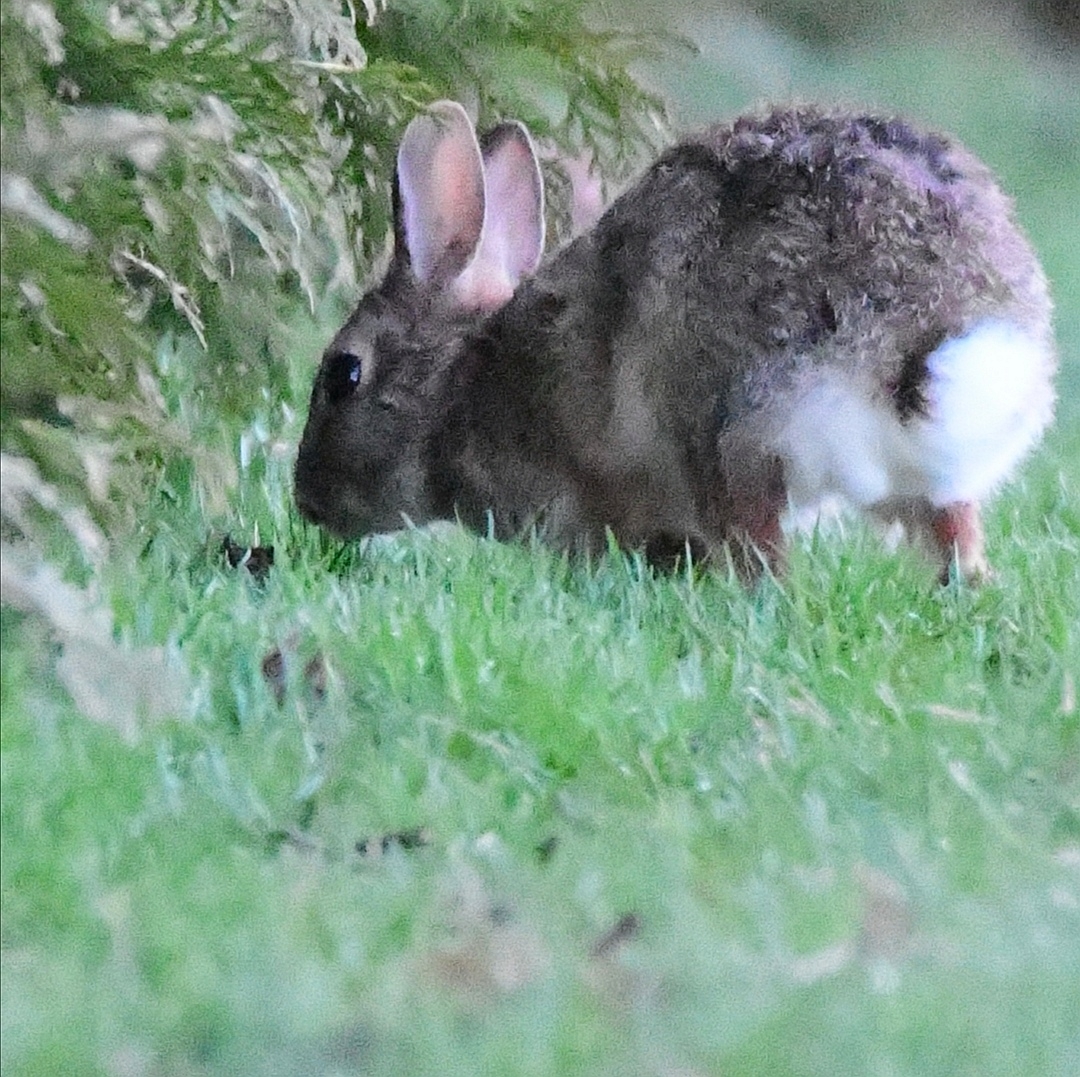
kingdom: Animalia
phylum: Chordata
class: Mammalia
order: Lagomorpha
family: Leporidae
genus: Sylvilagus
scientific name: Sylvilagus floridanus
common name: Eastern cottontail
